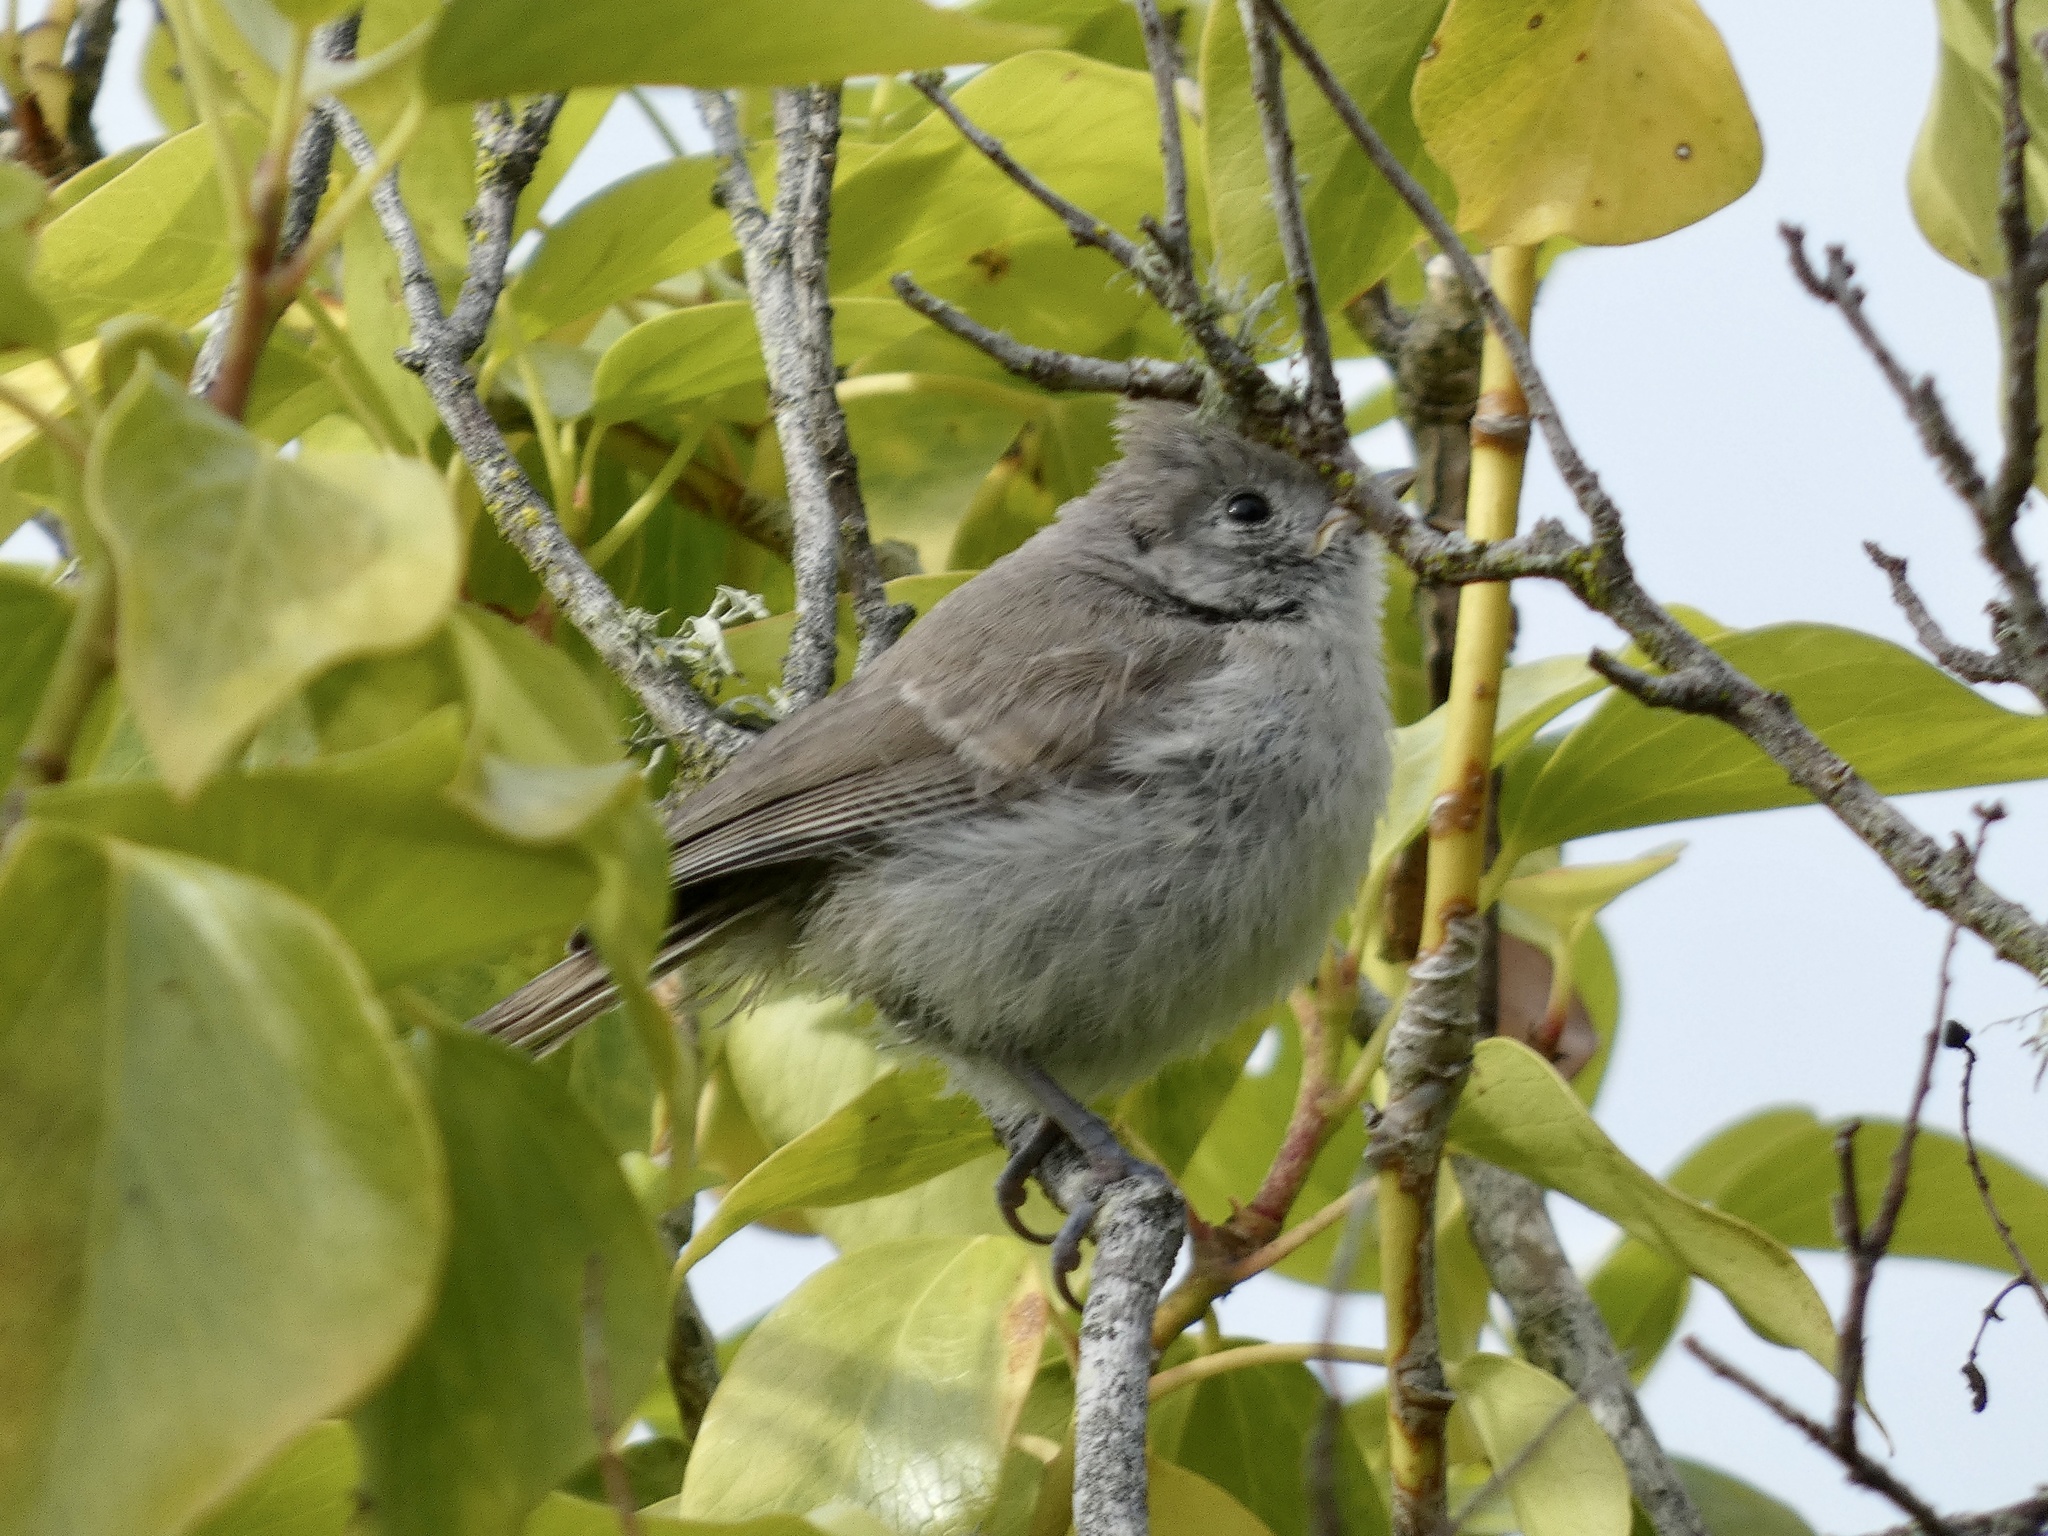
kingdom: Animalia
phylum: Chordata
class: Aves
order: Passeriformes
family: Paridae
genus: Baeolophus
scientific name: Baeolophus inornatus
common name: Oak titmouse
